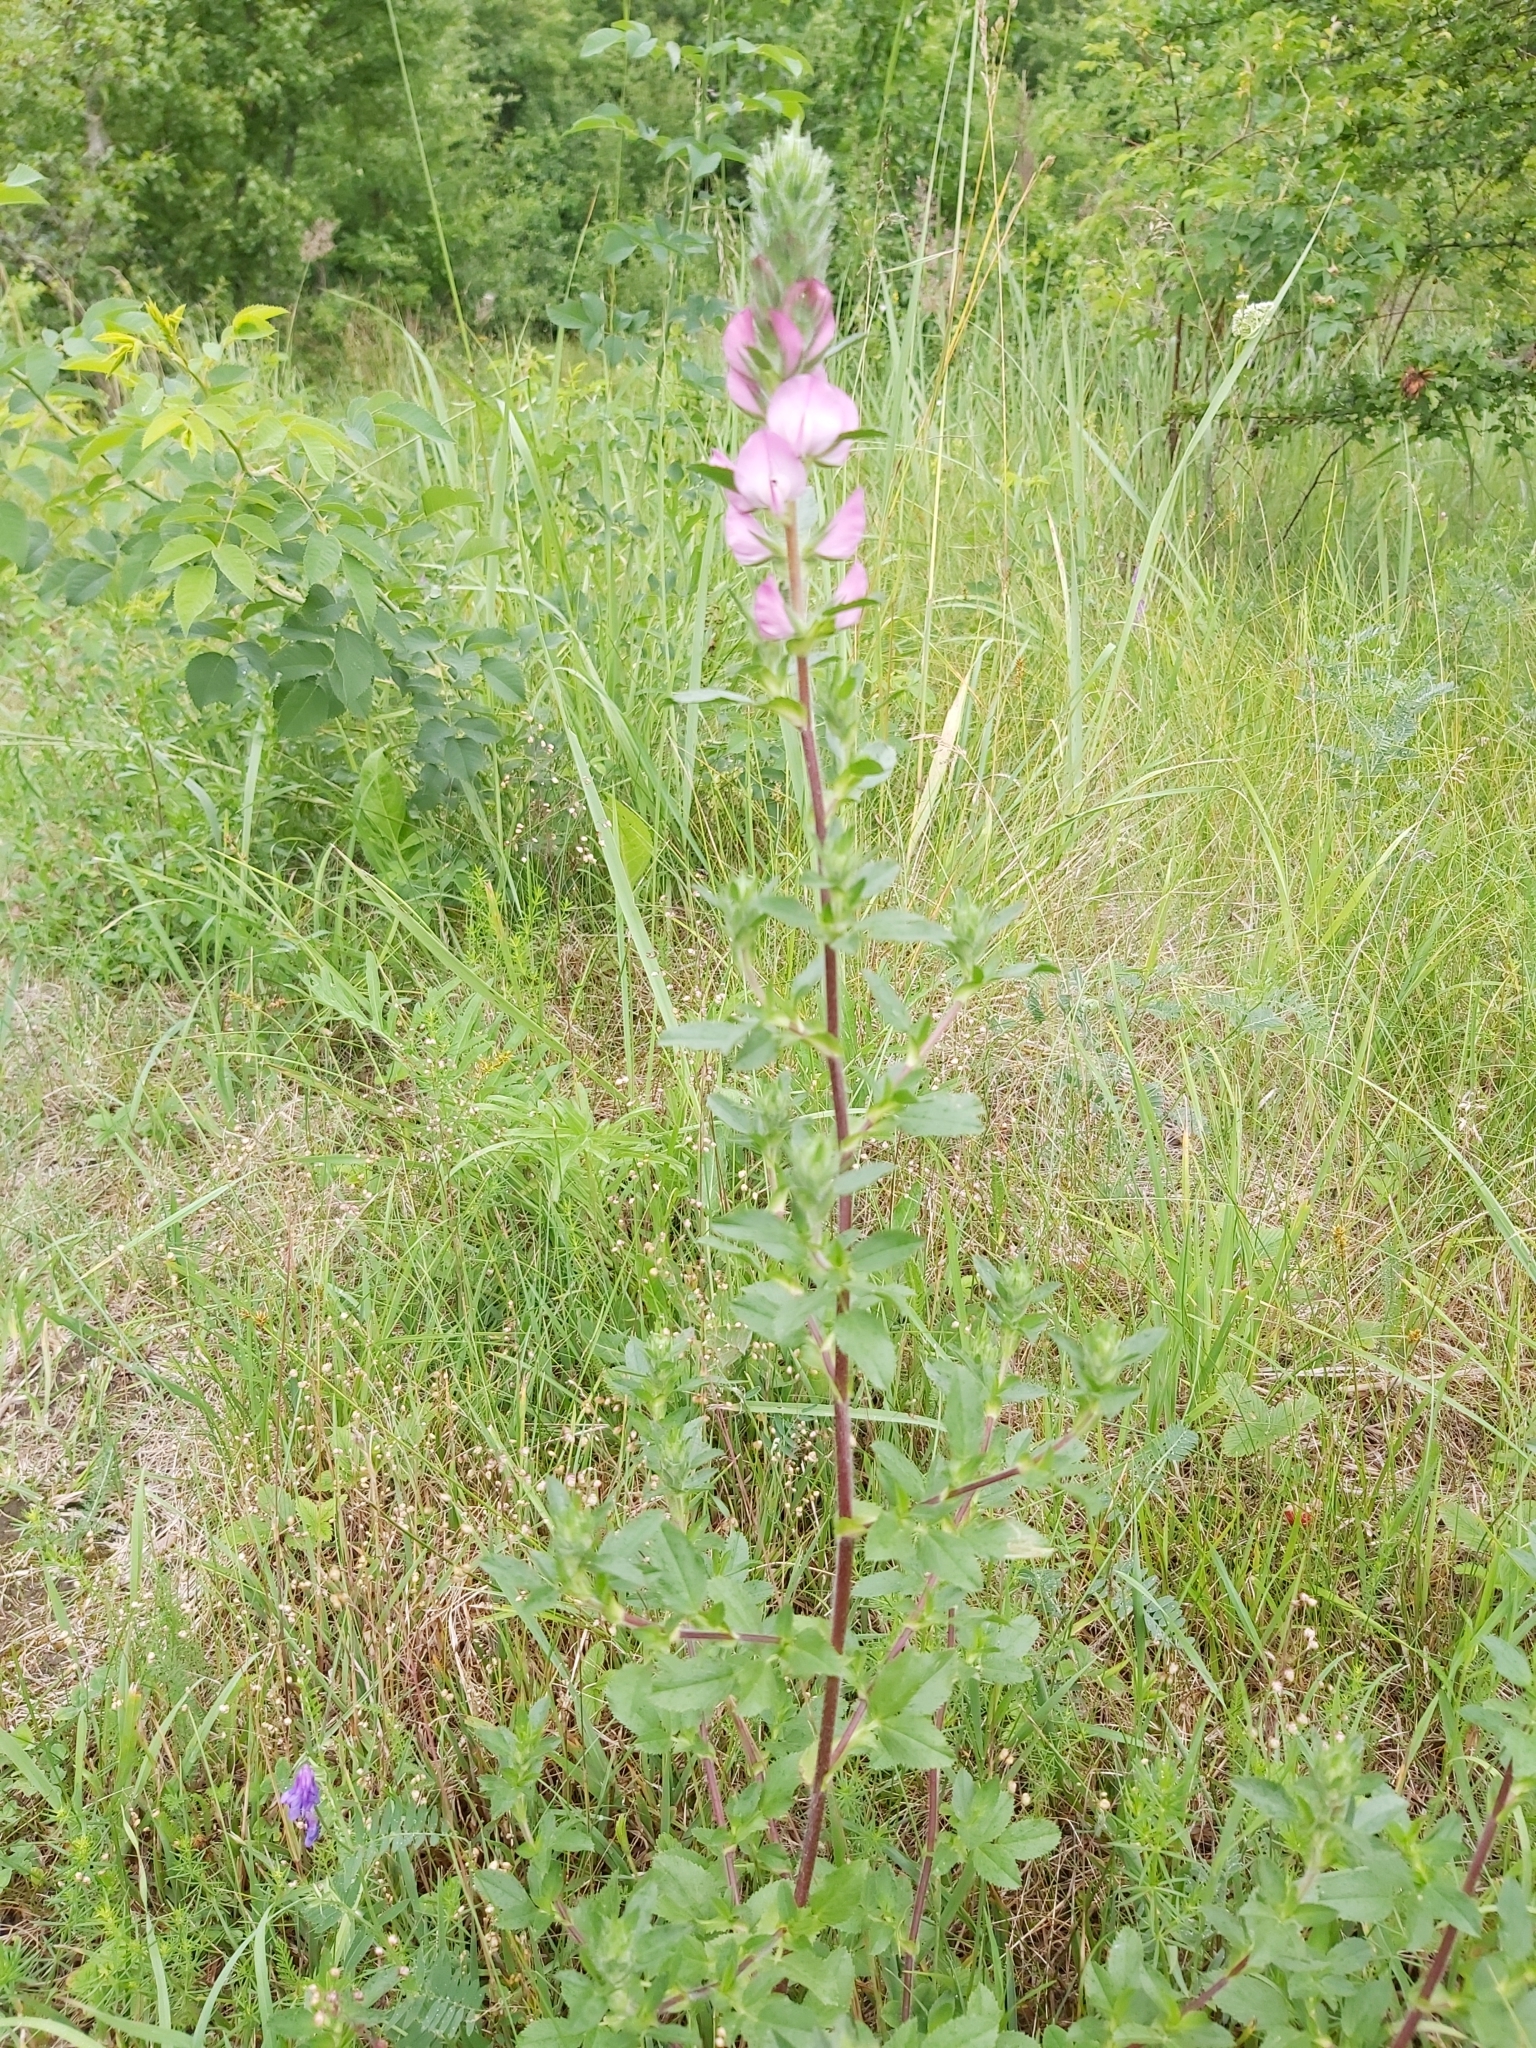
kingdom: Plantae
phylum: Tracheophyta
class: Magnoliopsida
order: Fabales
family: Fabaceae
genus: Ononis
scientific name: Ononis arvensis
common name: Field restharrow
